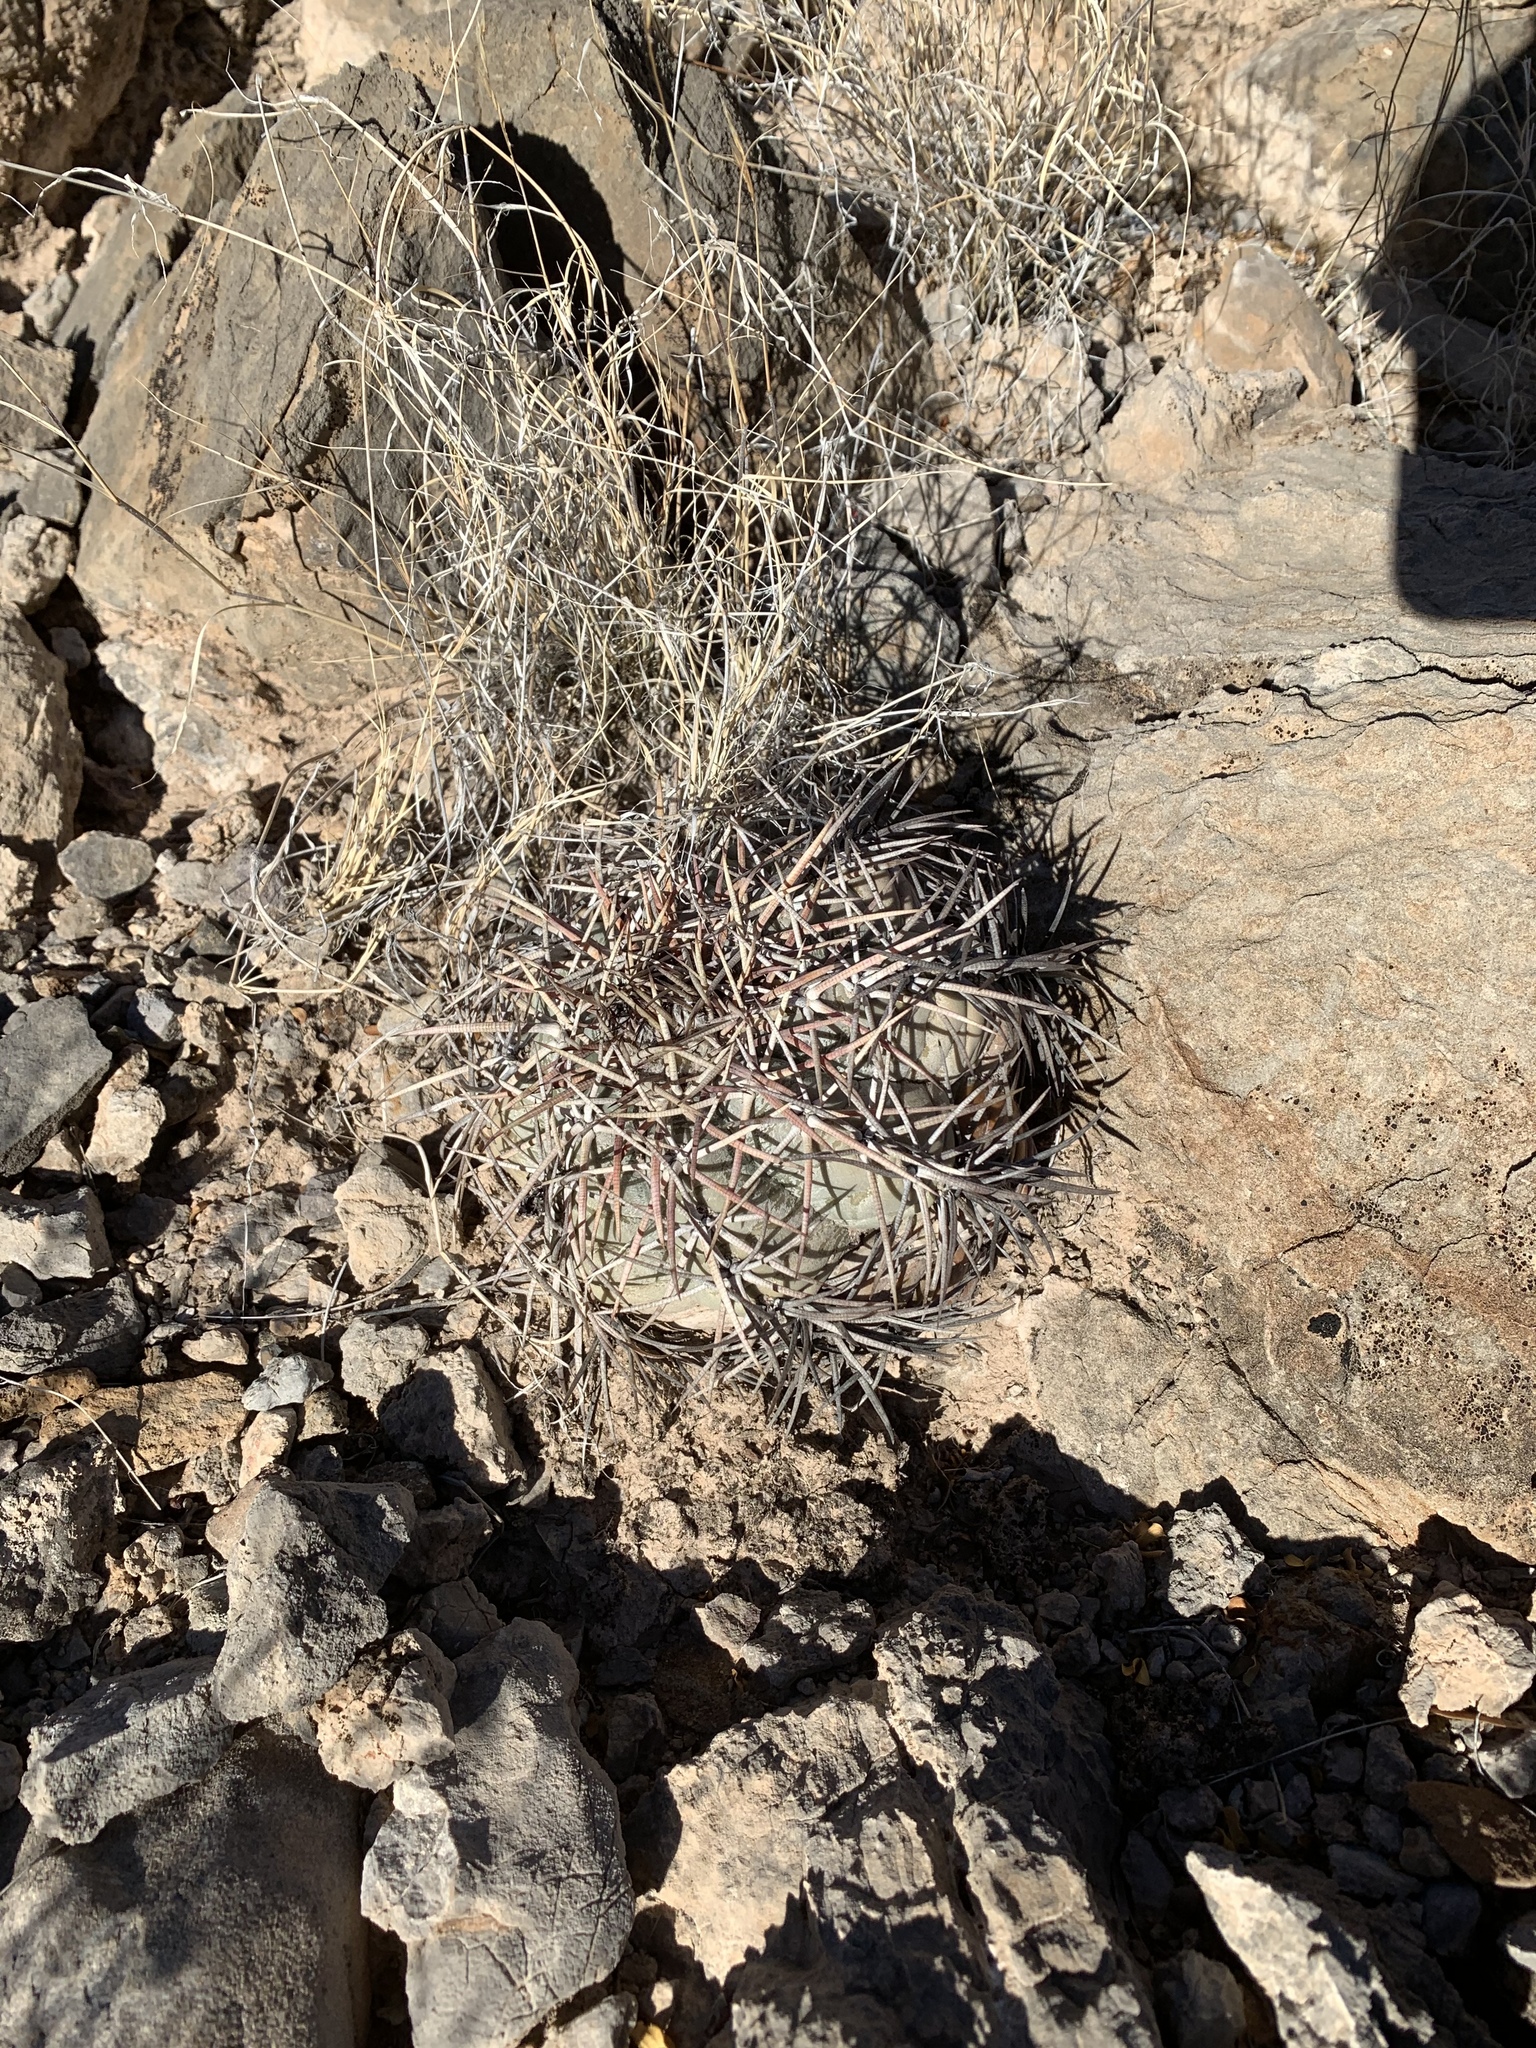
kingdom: Plantae
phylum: Tracheophyta
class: Magnoliopsida
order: Caryophyllales
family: Cactaceae
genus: Echinocactus
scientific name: Echinocactus horizonthalonius
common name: Devilshead
